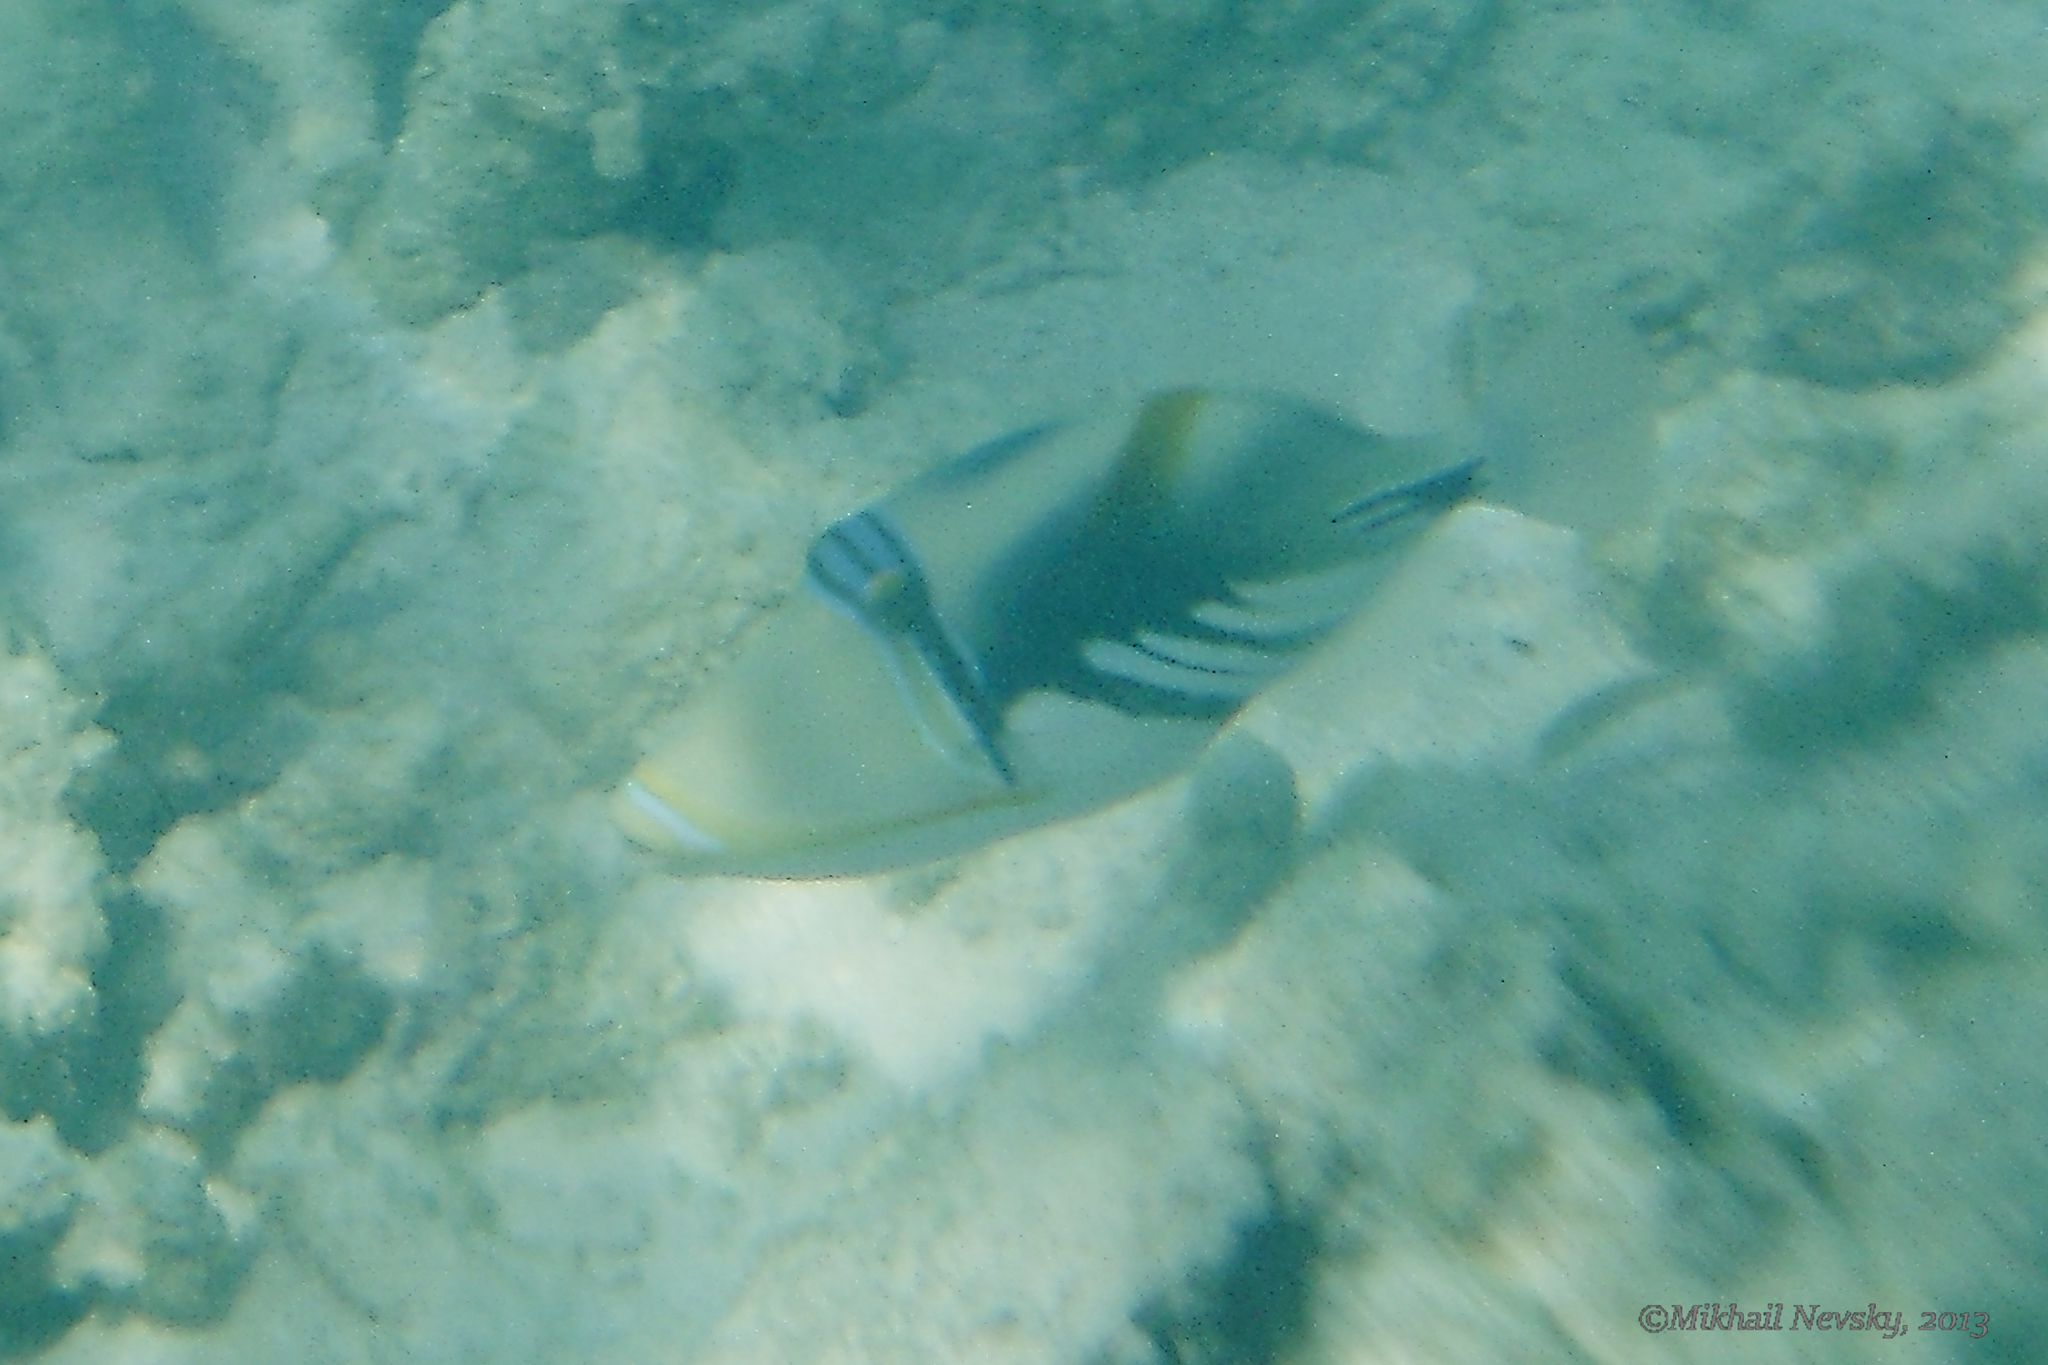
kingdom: Animalia
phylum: Chordata
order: Tetraodontiformes
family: Balistidae
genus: Rhinecanthus
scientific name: Rhinecanthus aculeatus
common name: White-banded triggerfish
